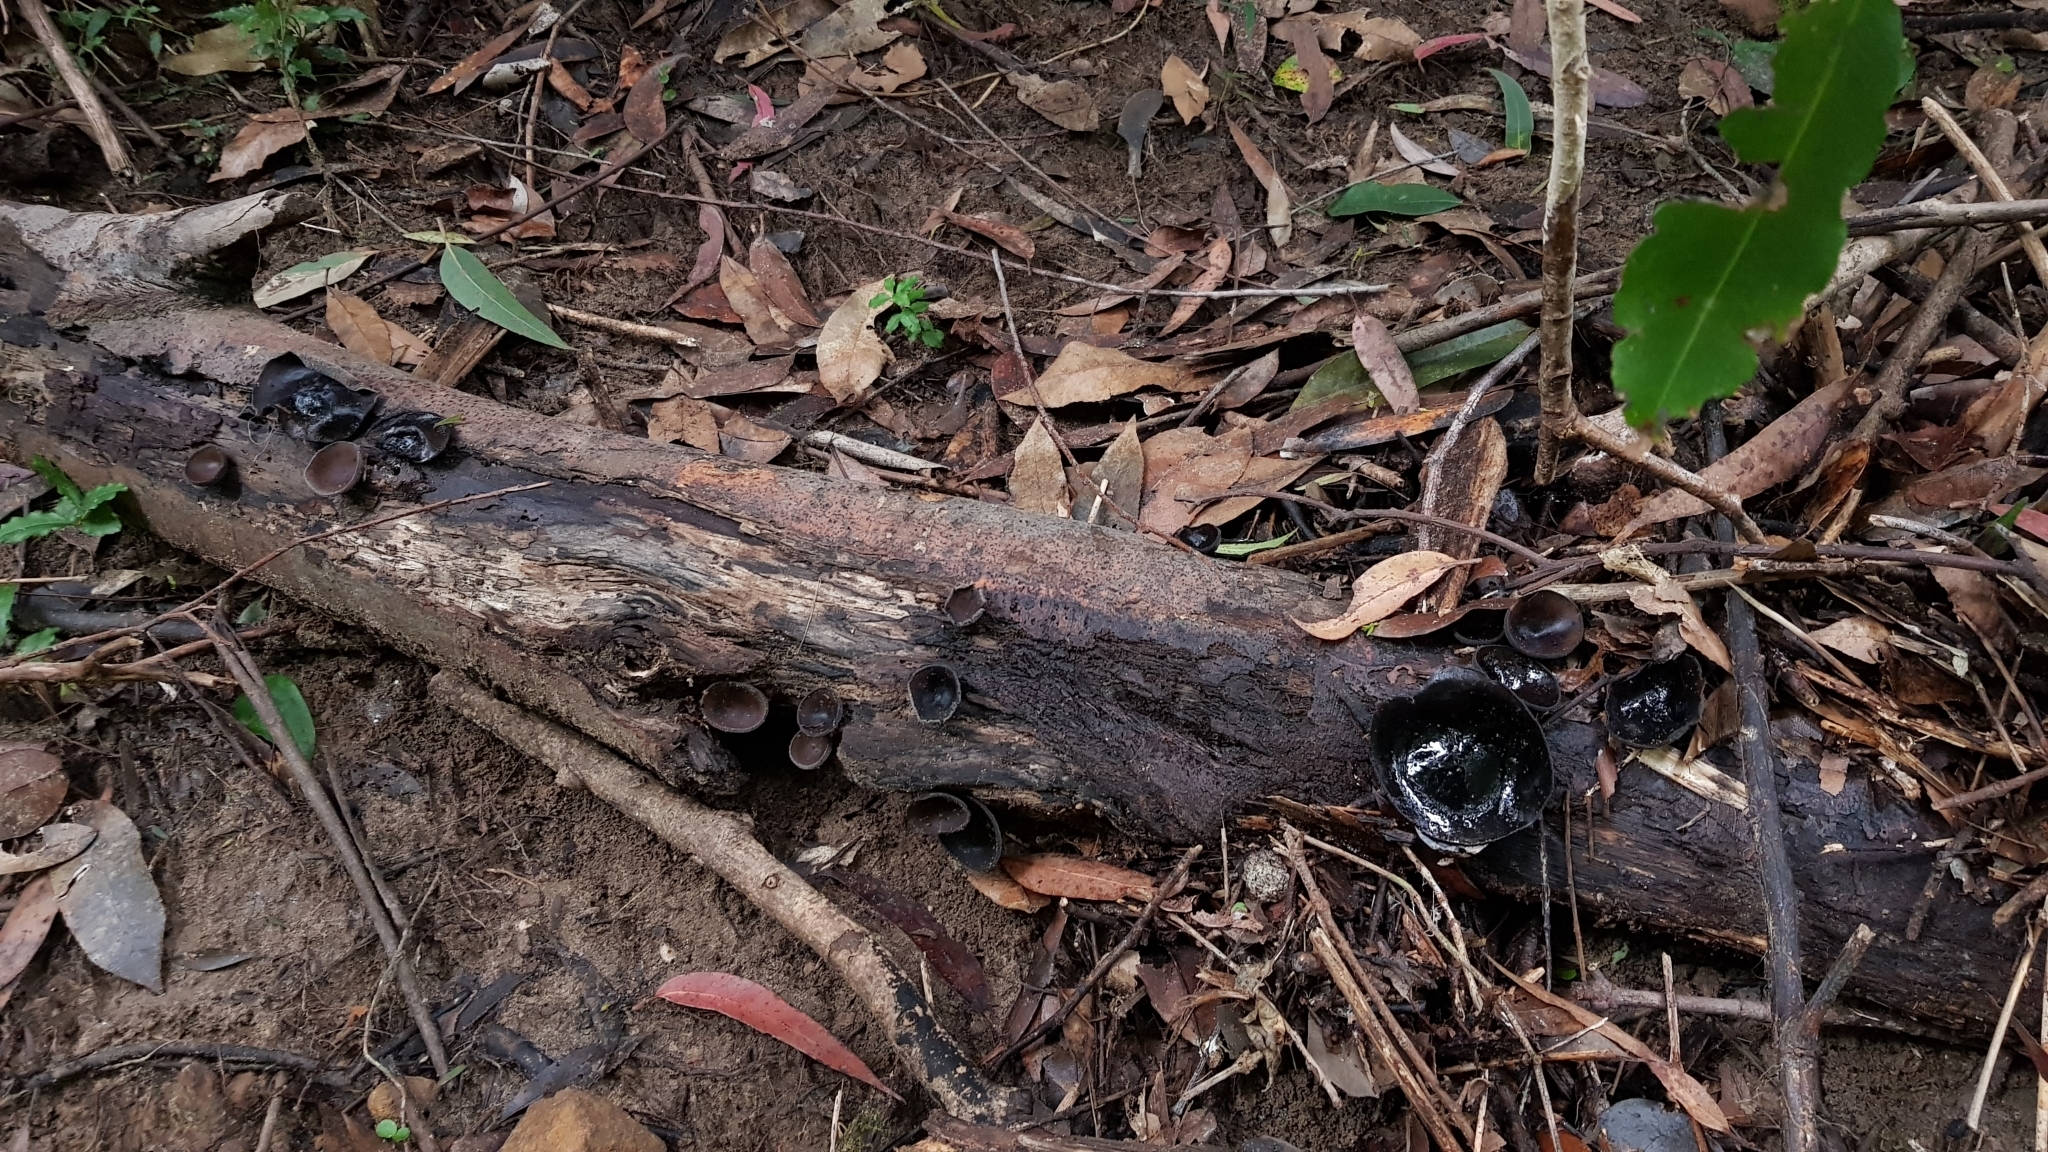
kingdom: Fungi
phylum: Ascomycota
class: Pezizomycetes
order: Pezizales
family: Sarcosomataceae
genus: Plectania
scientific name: Plectania campylospora
